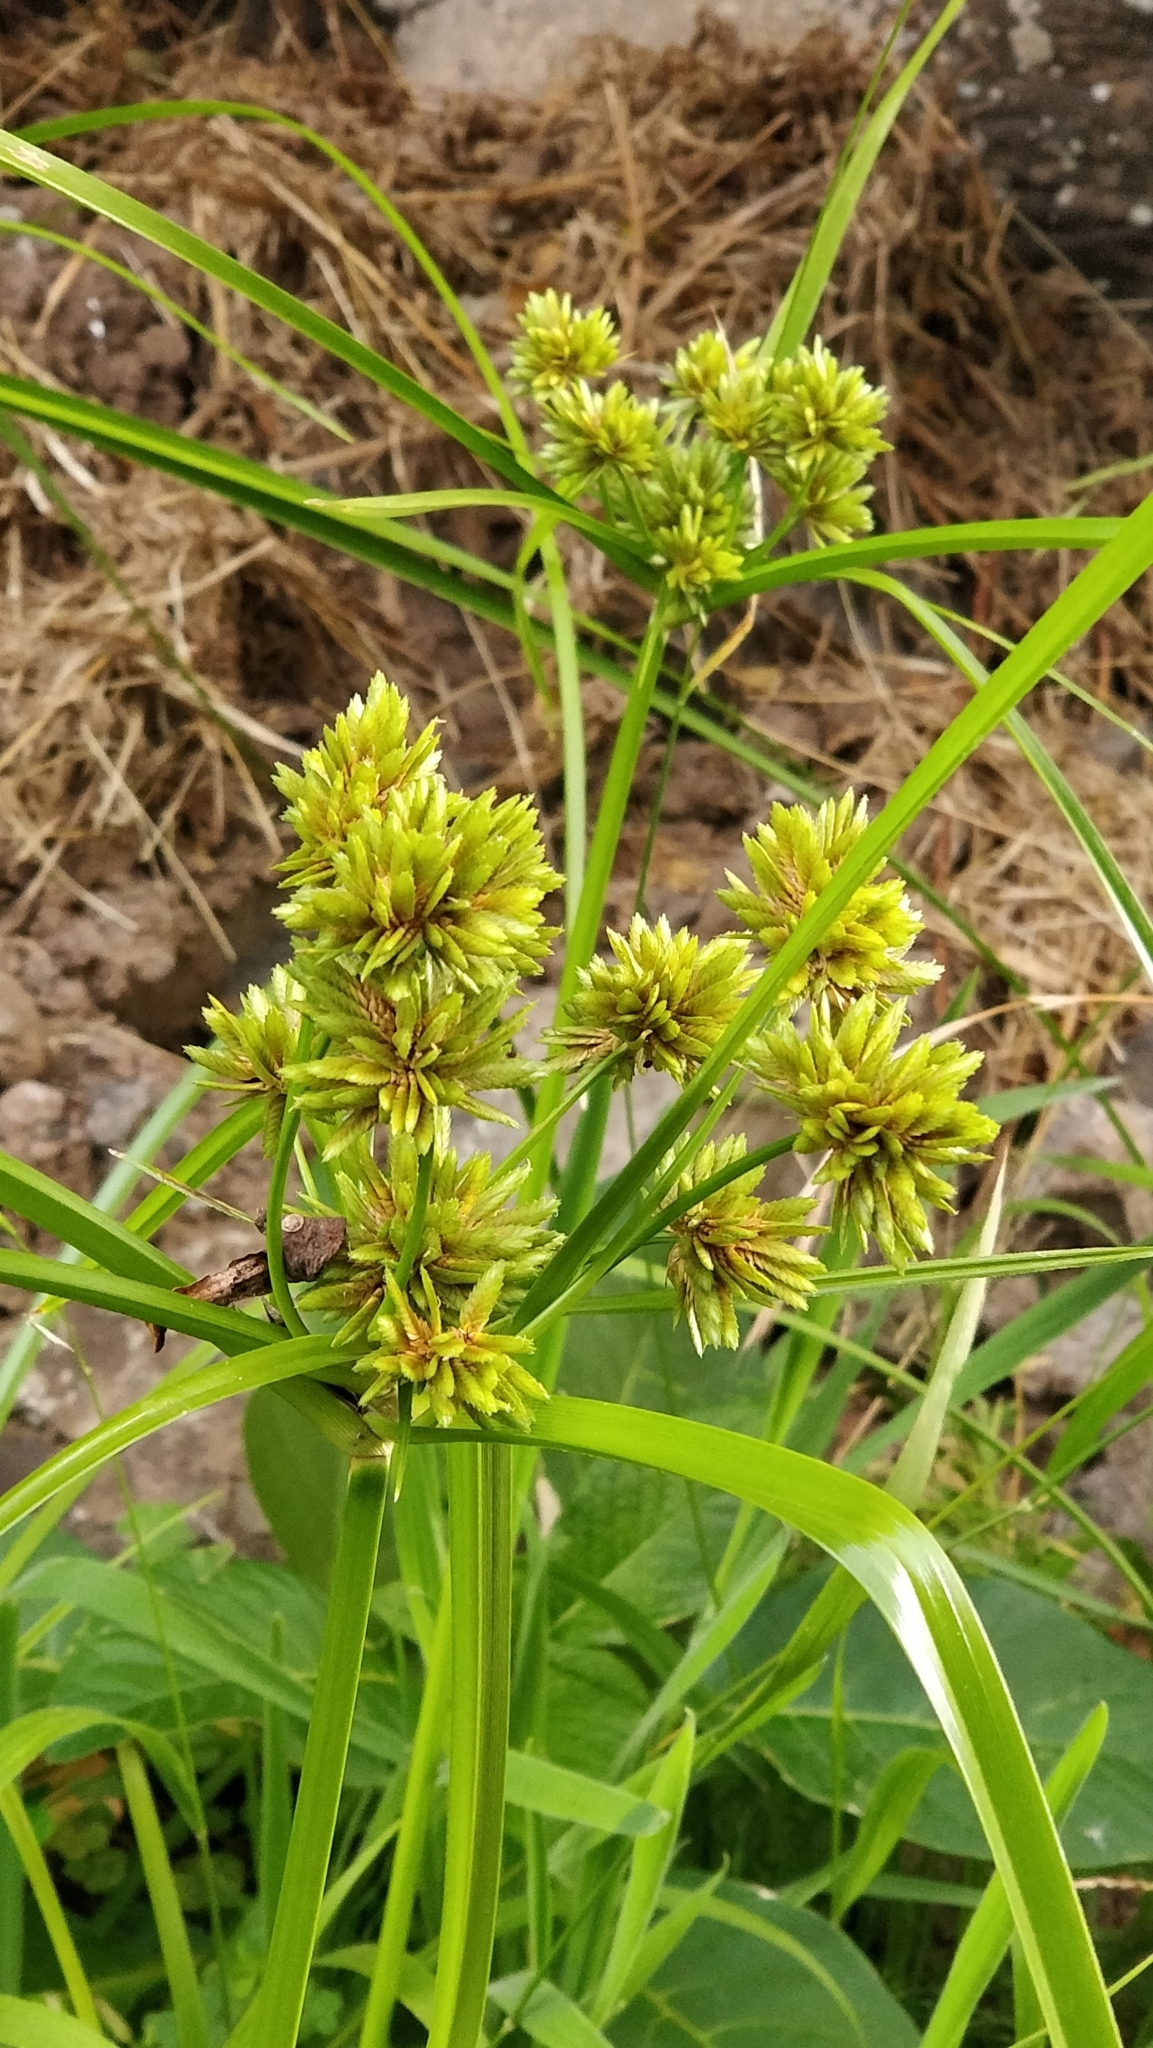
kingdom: Plantae
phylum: Tracheophyta
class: Liliopsida
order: Poales
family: Cyperaceae
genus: Cyperus
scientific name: Cyperus eragrostis
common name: Tall flatsedge
